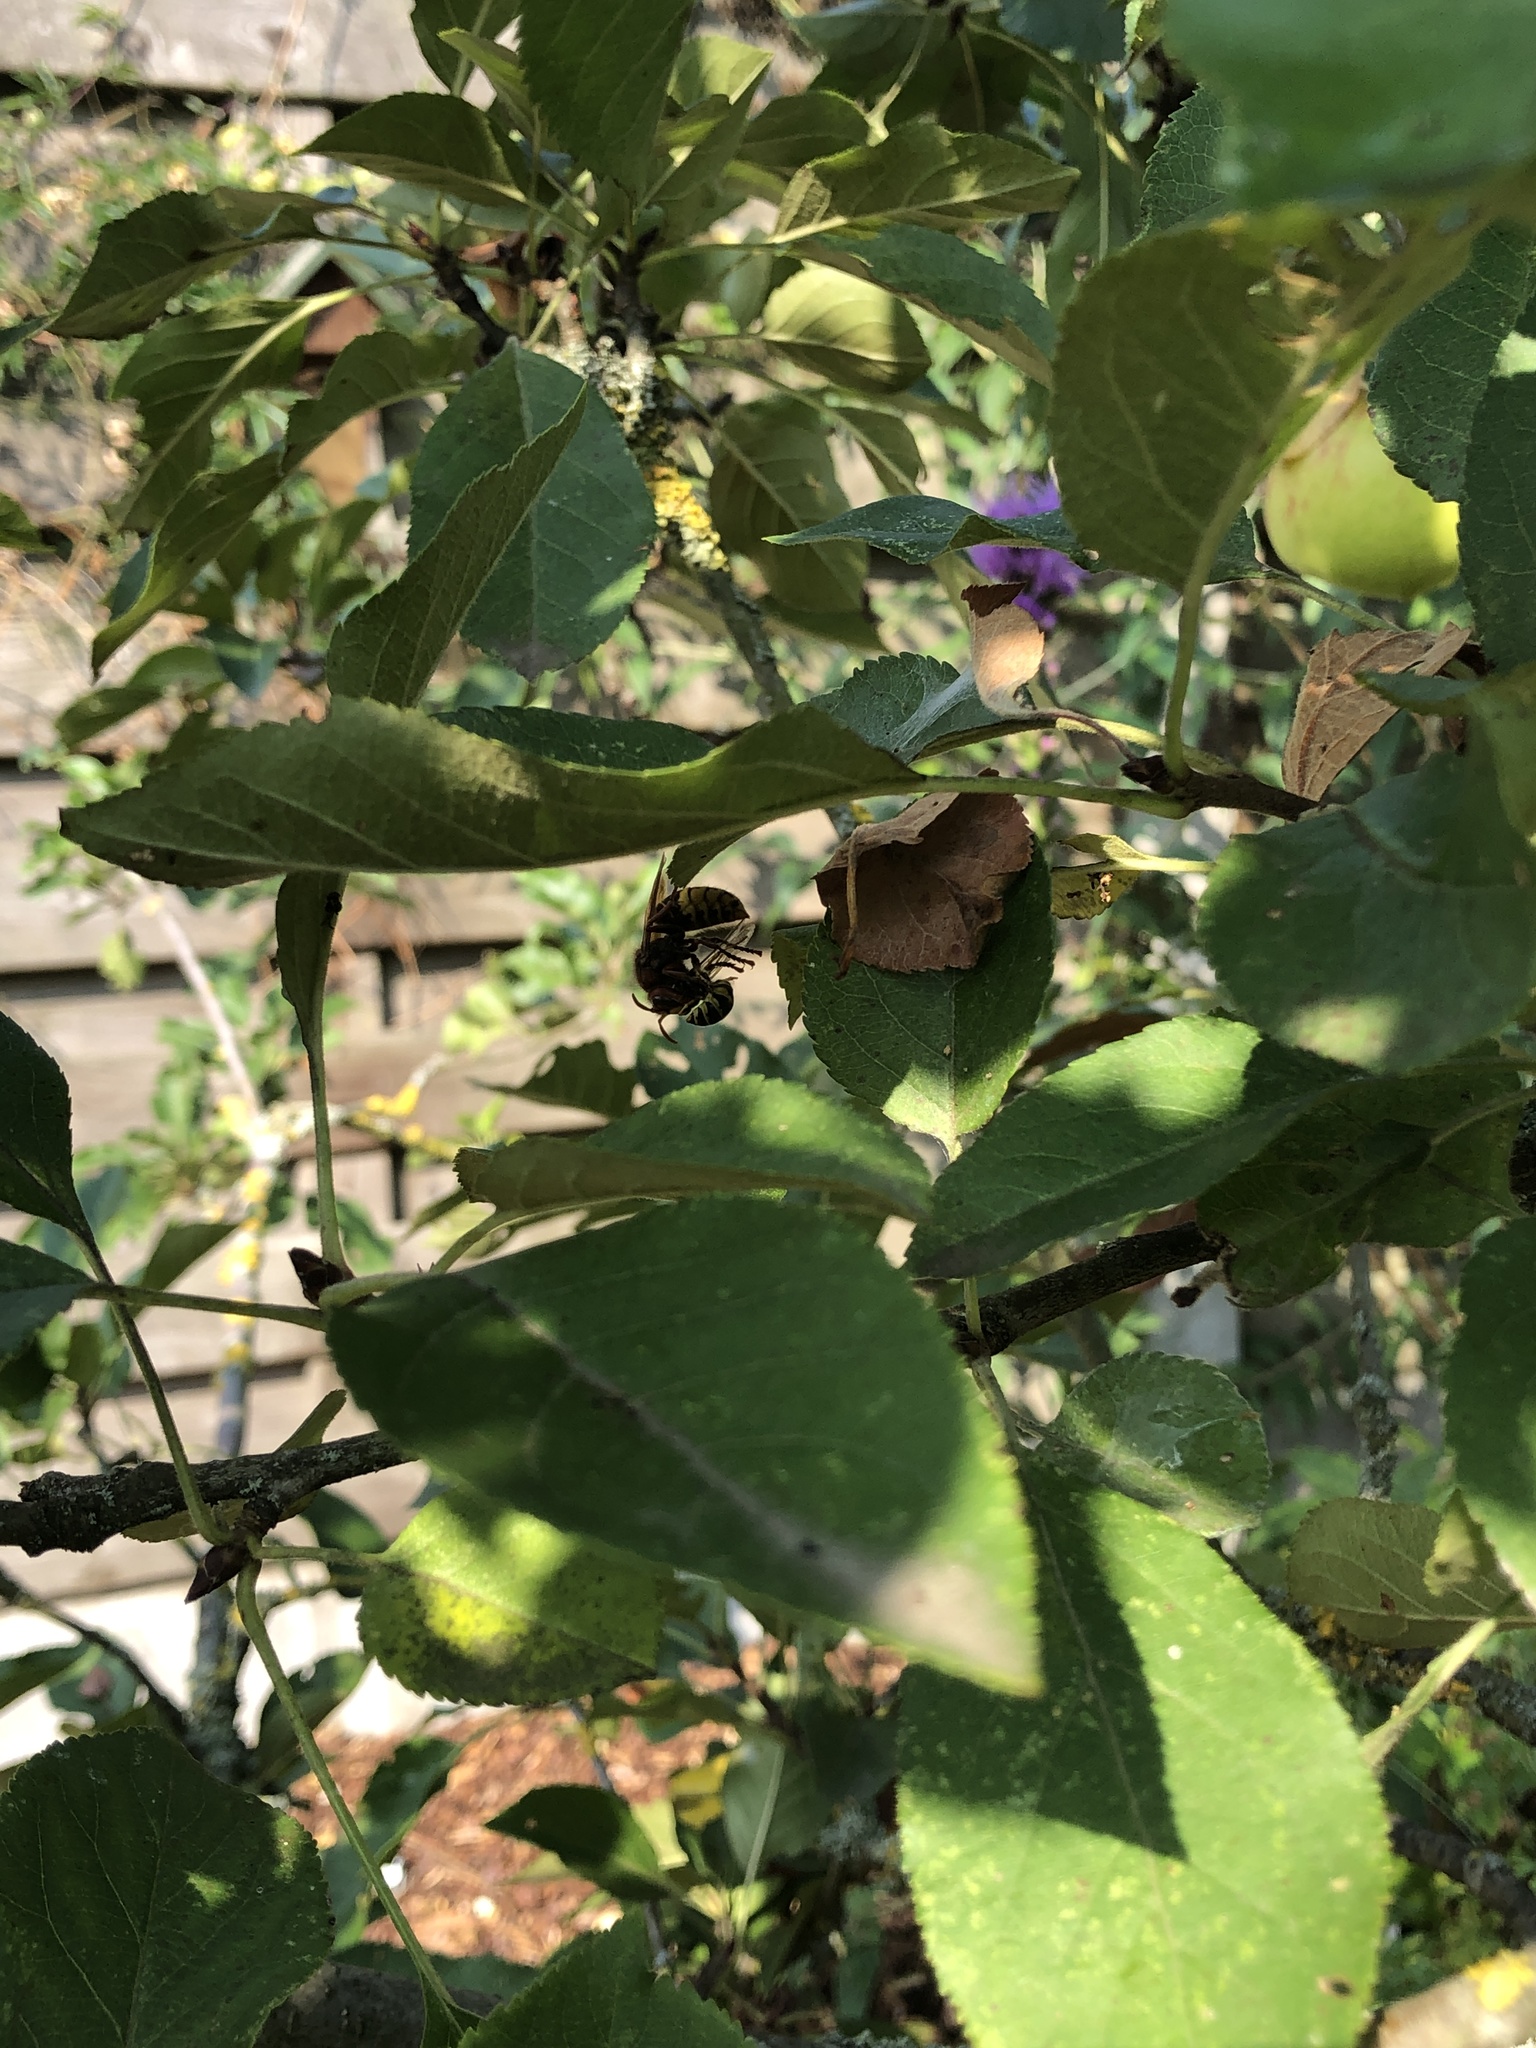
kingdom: Animalia
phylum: Arthropoda
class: Insecta
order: Hymenoptera
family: Vespidae
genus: Vespa
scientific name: Vespa crabro
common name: Hornet
